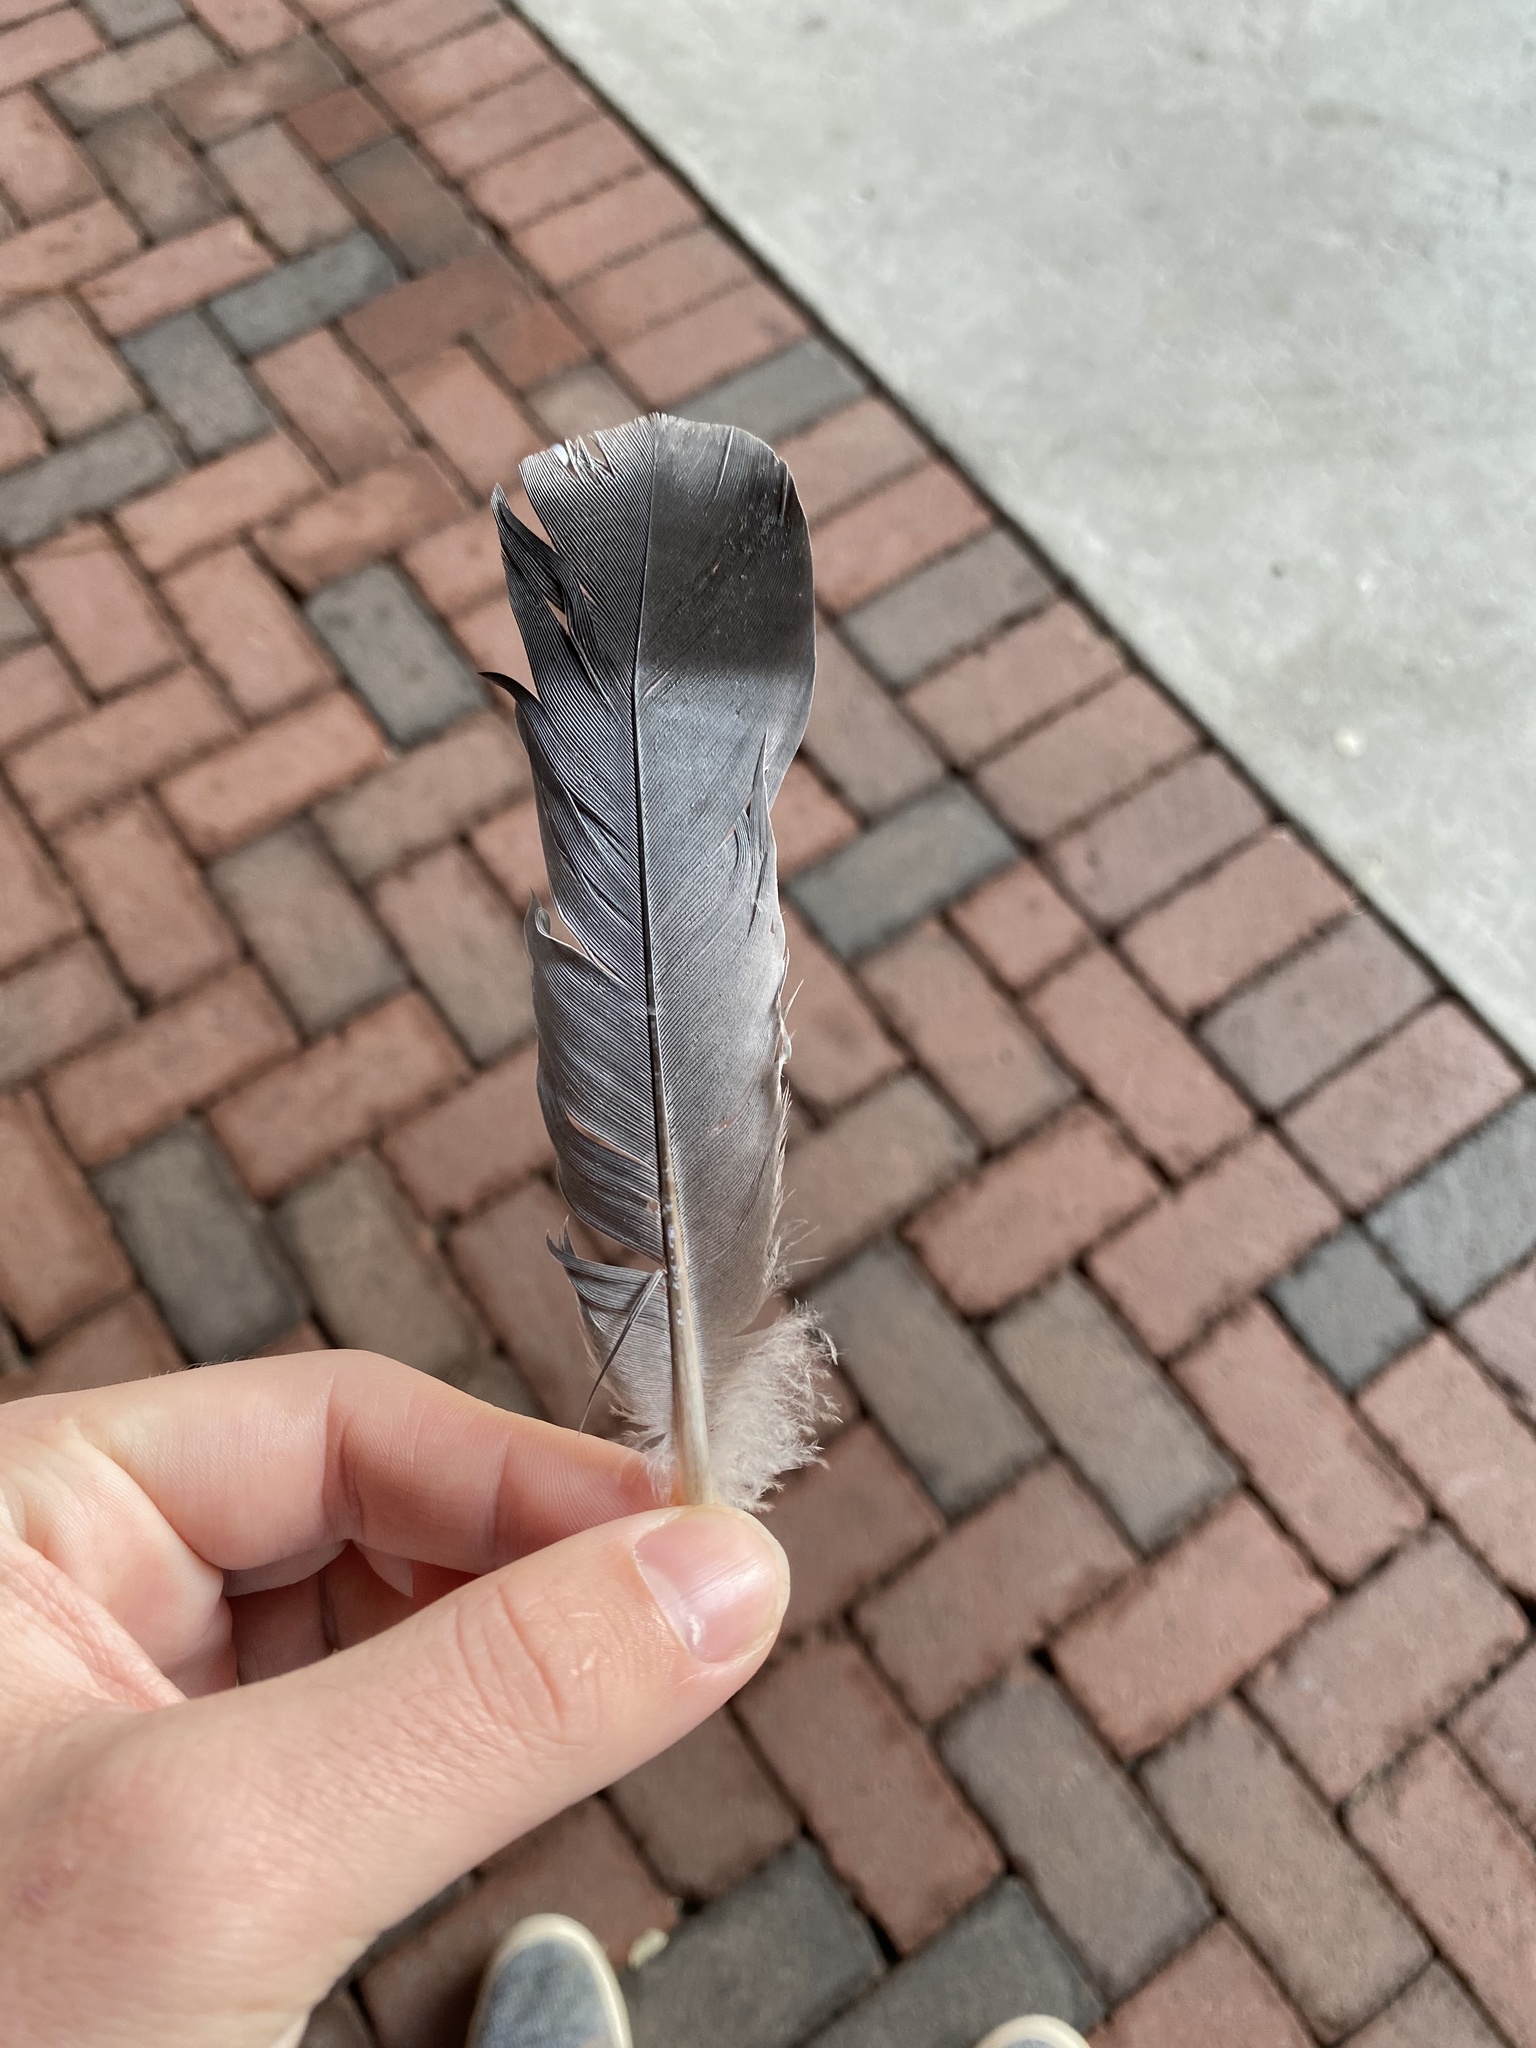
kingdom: Animalia
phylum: Chordata
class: Aves
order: Columbiformes
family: Columbidae
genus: Columba
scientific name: Columba livia
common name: Rock pigeon
